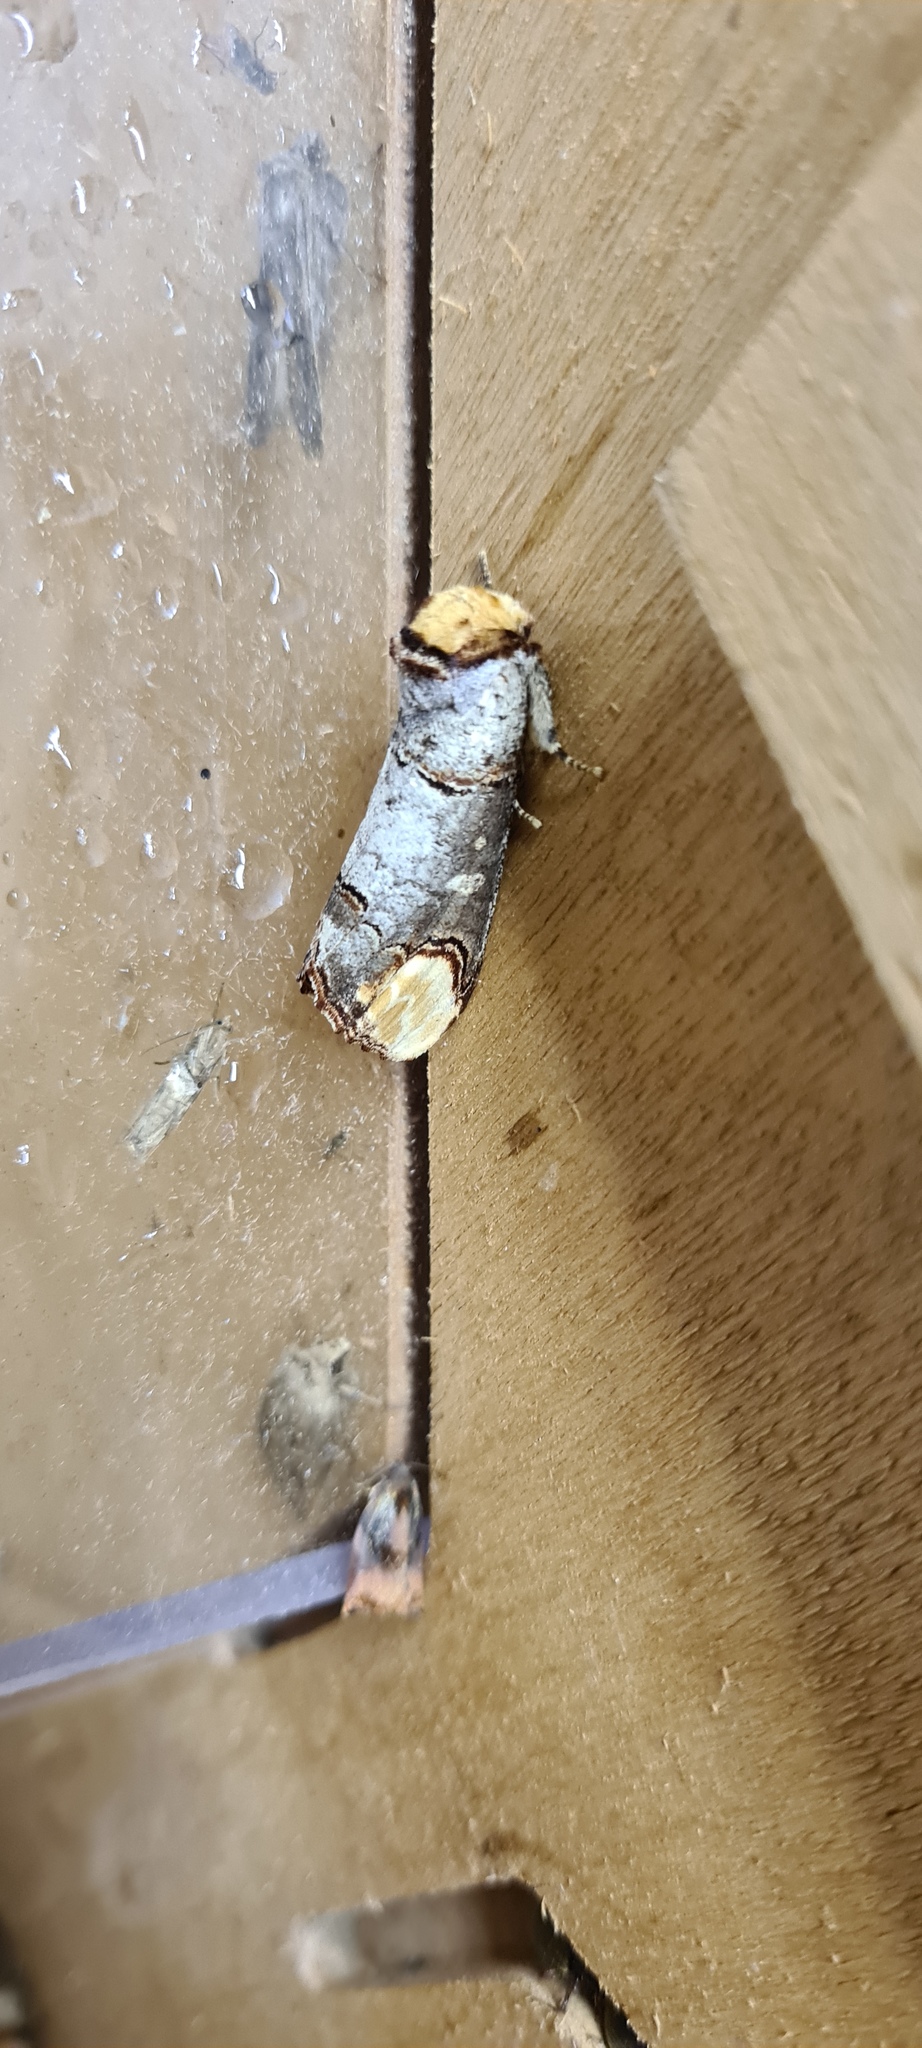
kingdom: Animalia
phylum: Arthropoda
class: Insecta
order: Lepidoptera
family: Notodontidae
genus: Phalera
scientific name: Phalera bucephala
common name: Buff-tip
